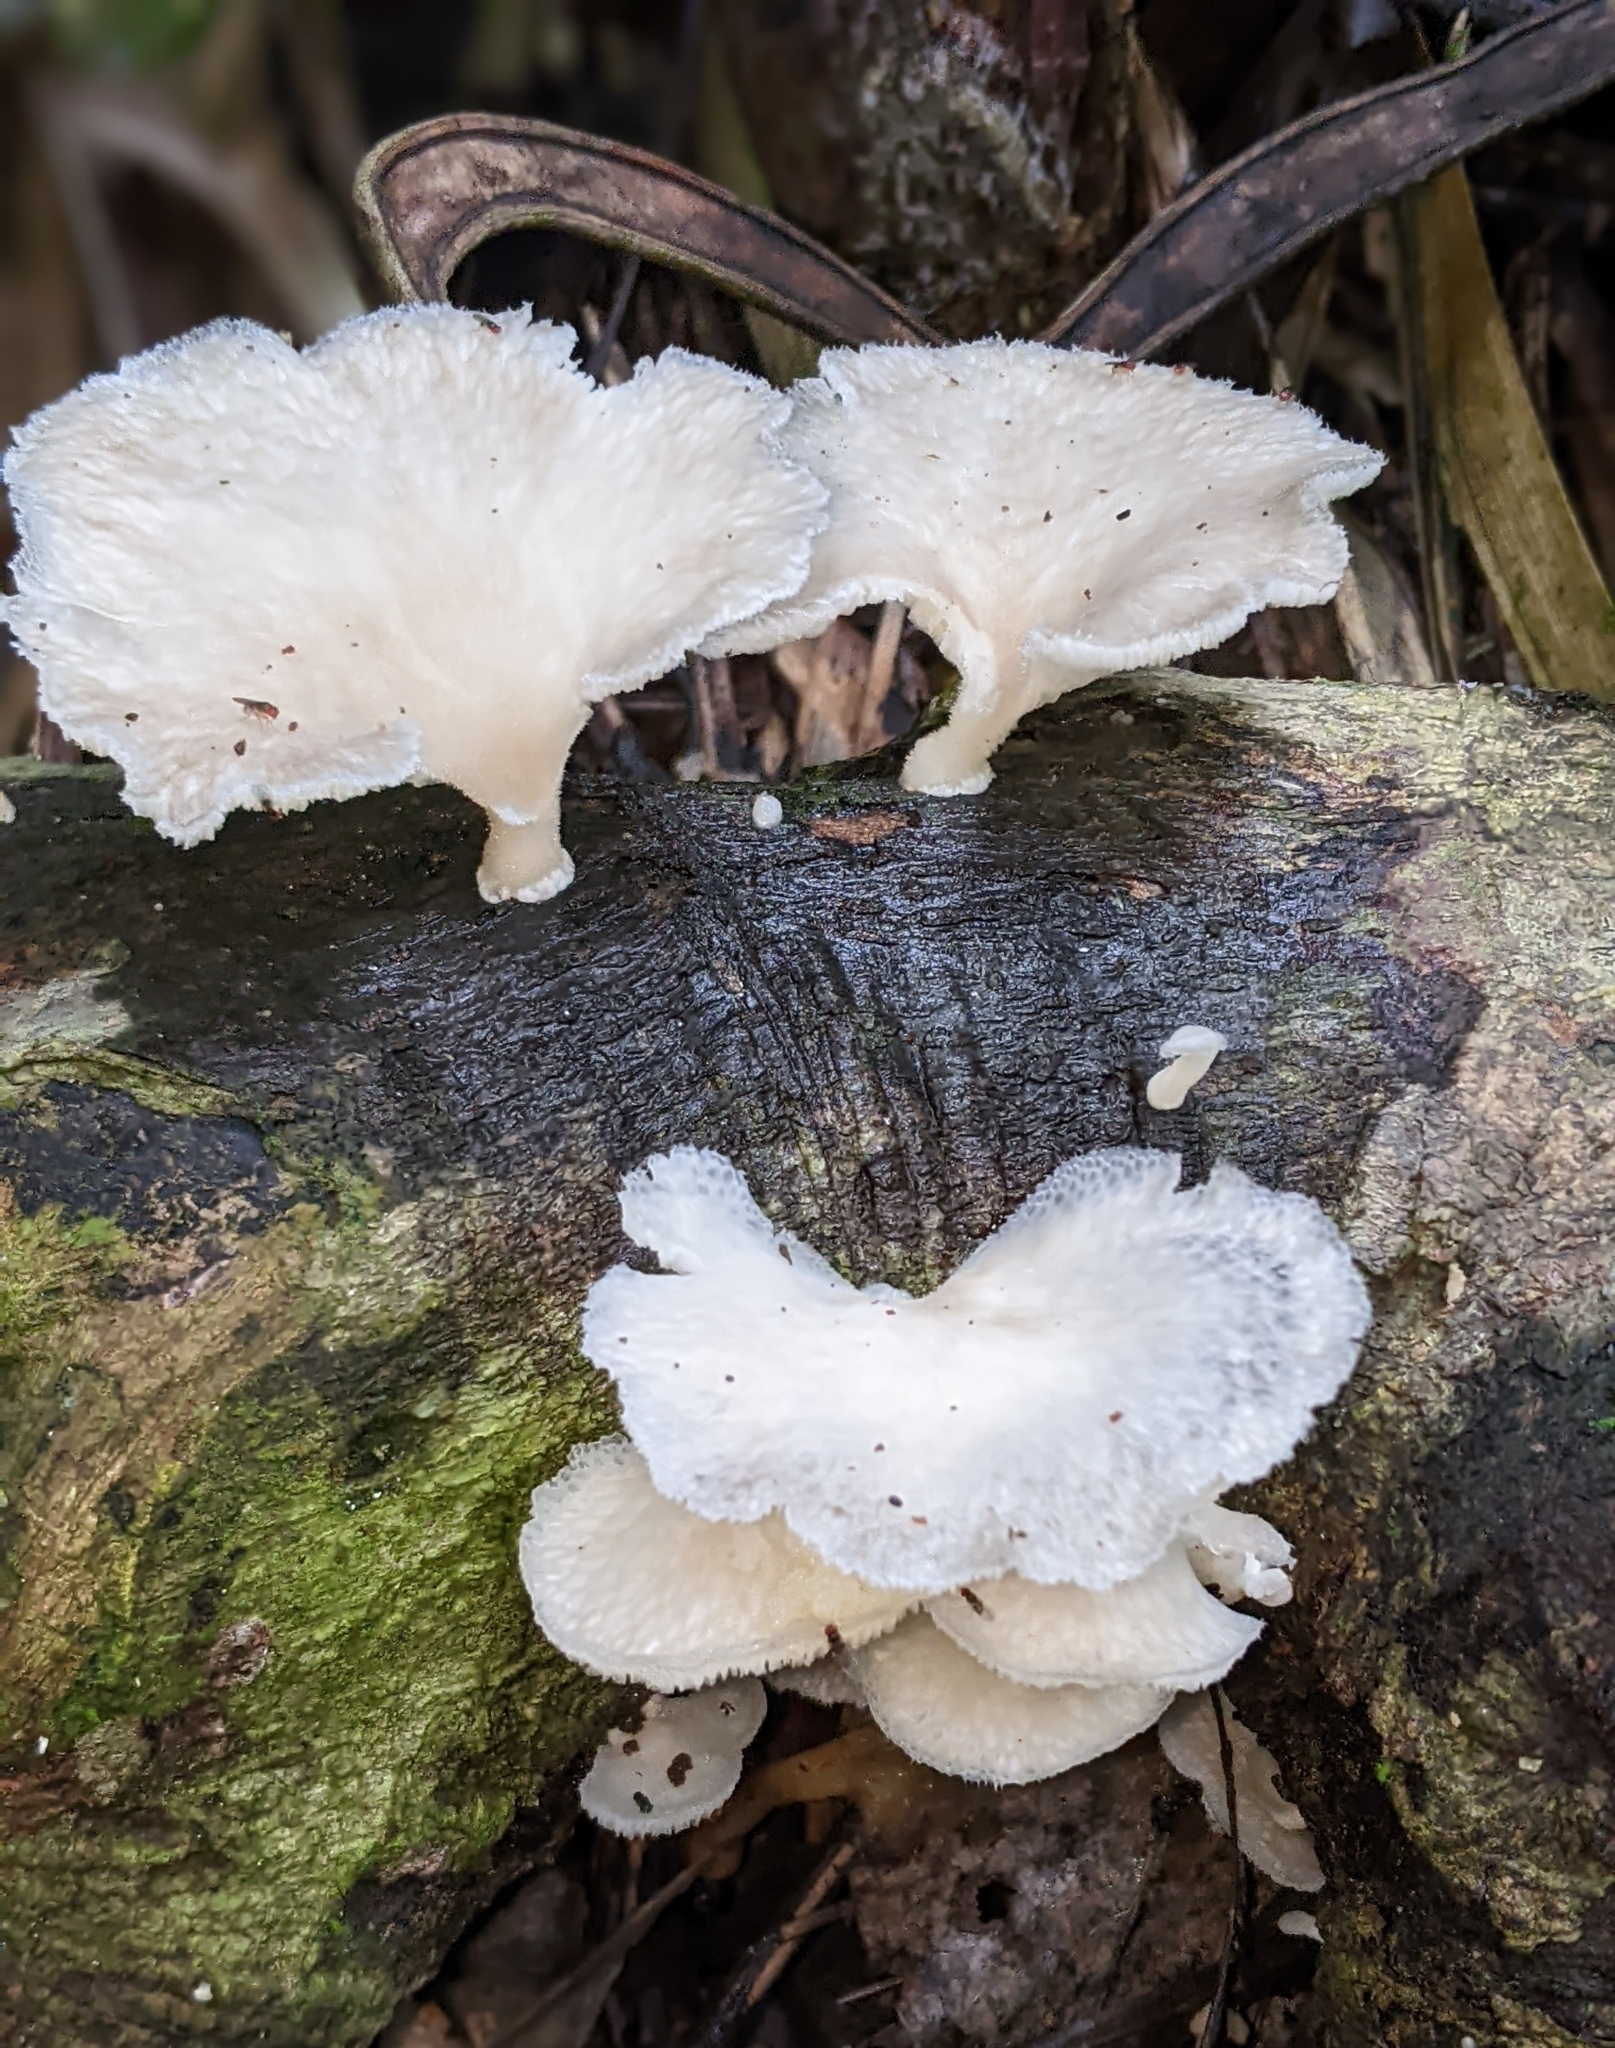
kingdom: Fungi
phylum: Basidiomycota
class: Agaricomycetes
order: Polyporales
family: Polyporaceae
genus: Favolus
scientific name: Favolus tenuiculus
